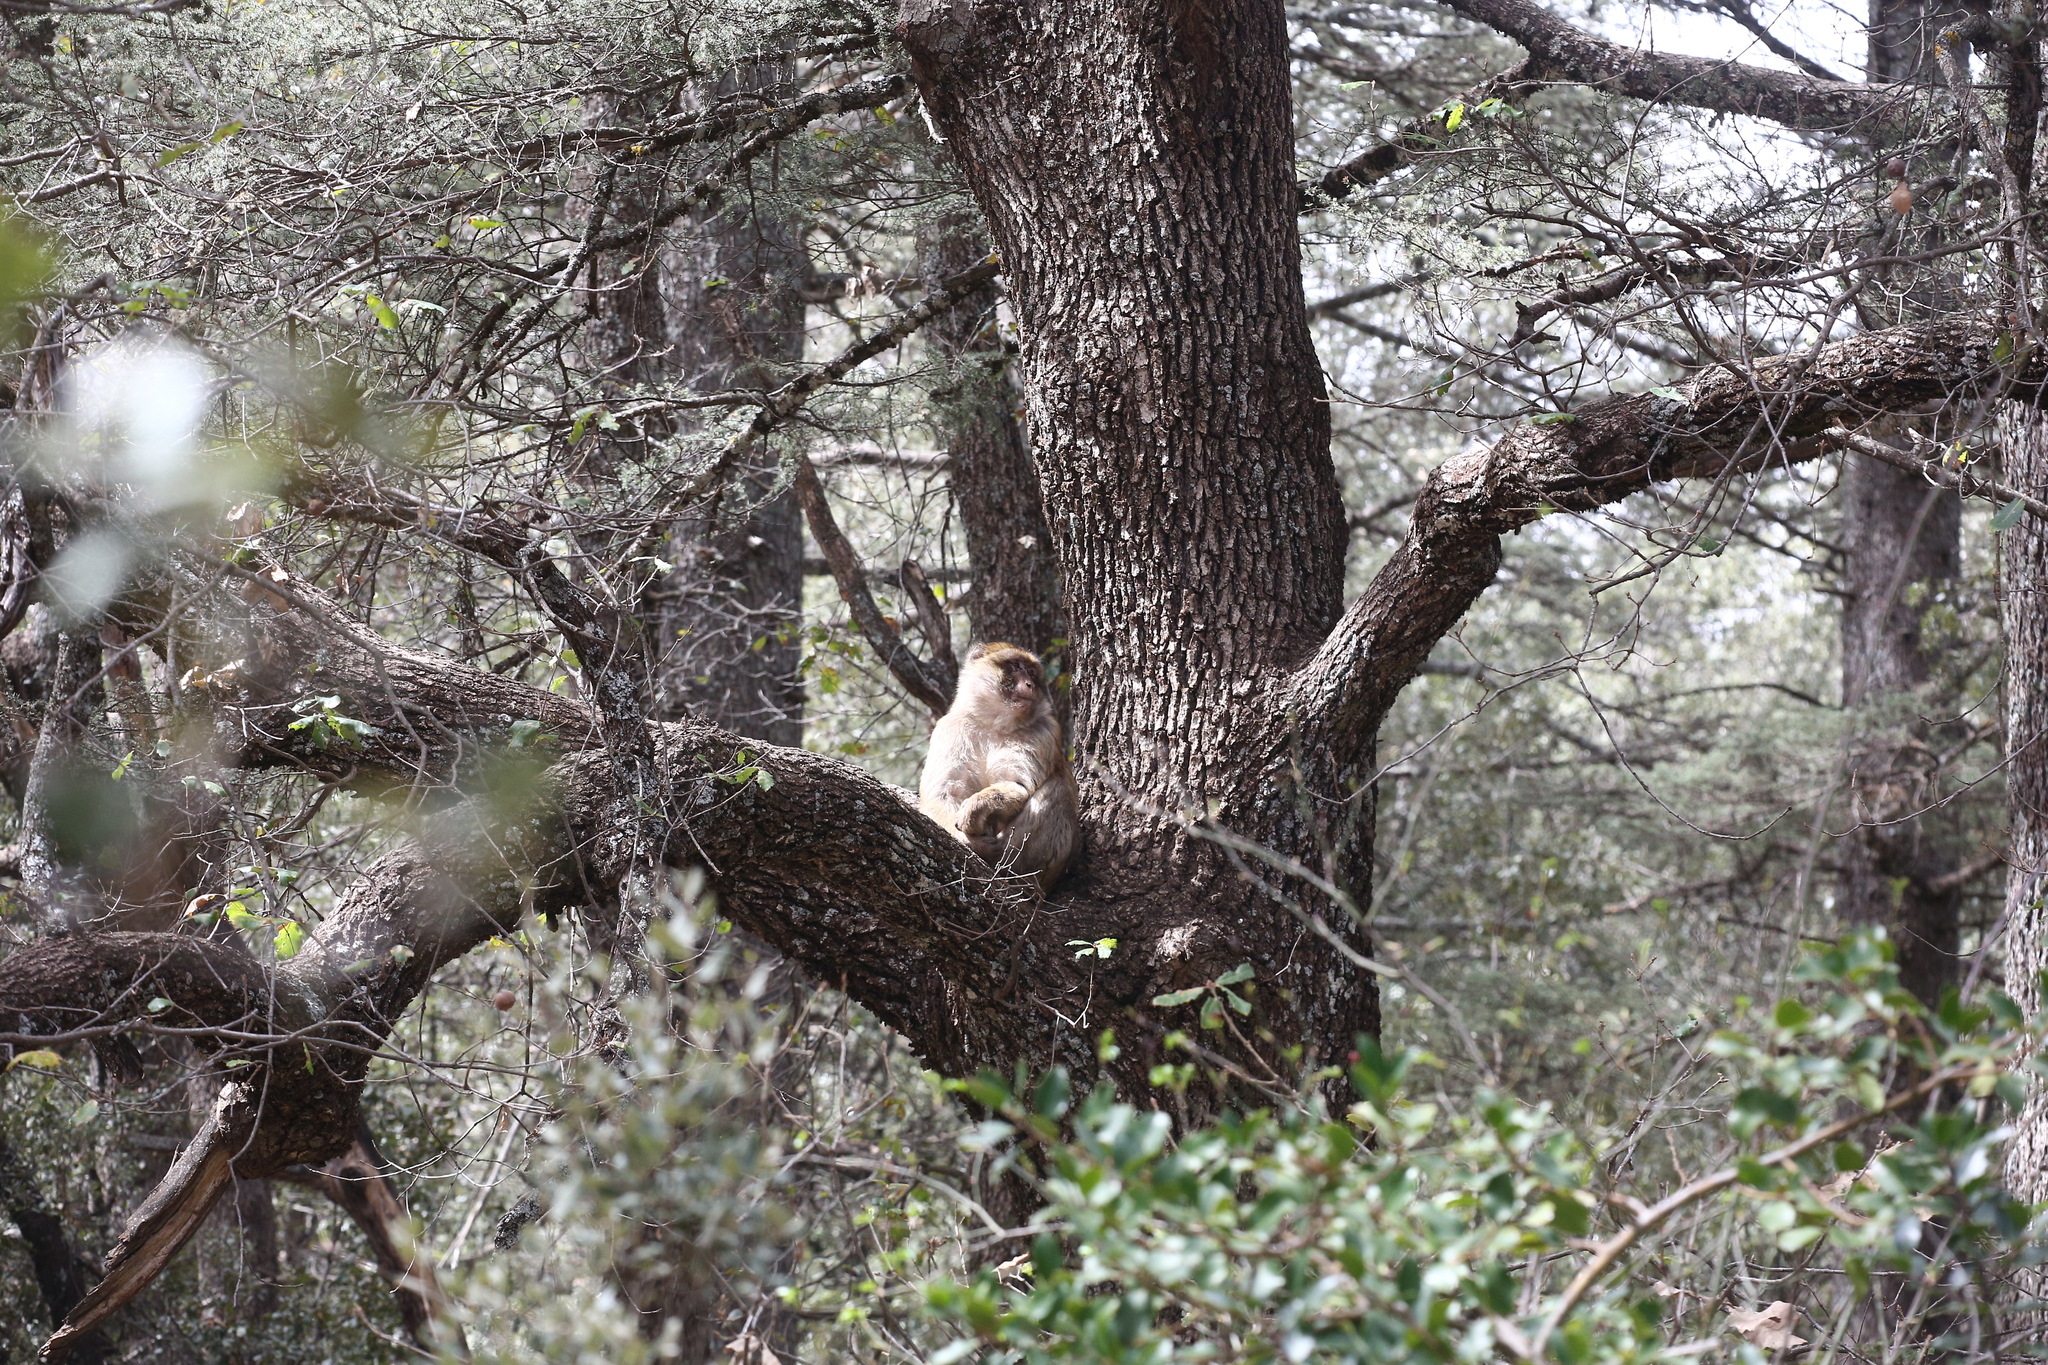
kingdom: Animalia
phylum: Chordata
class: Mammalia
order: Primates
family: Cercopithecidae
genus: Macaca
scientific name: Macaca sylvanus
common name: Barbary macaque
